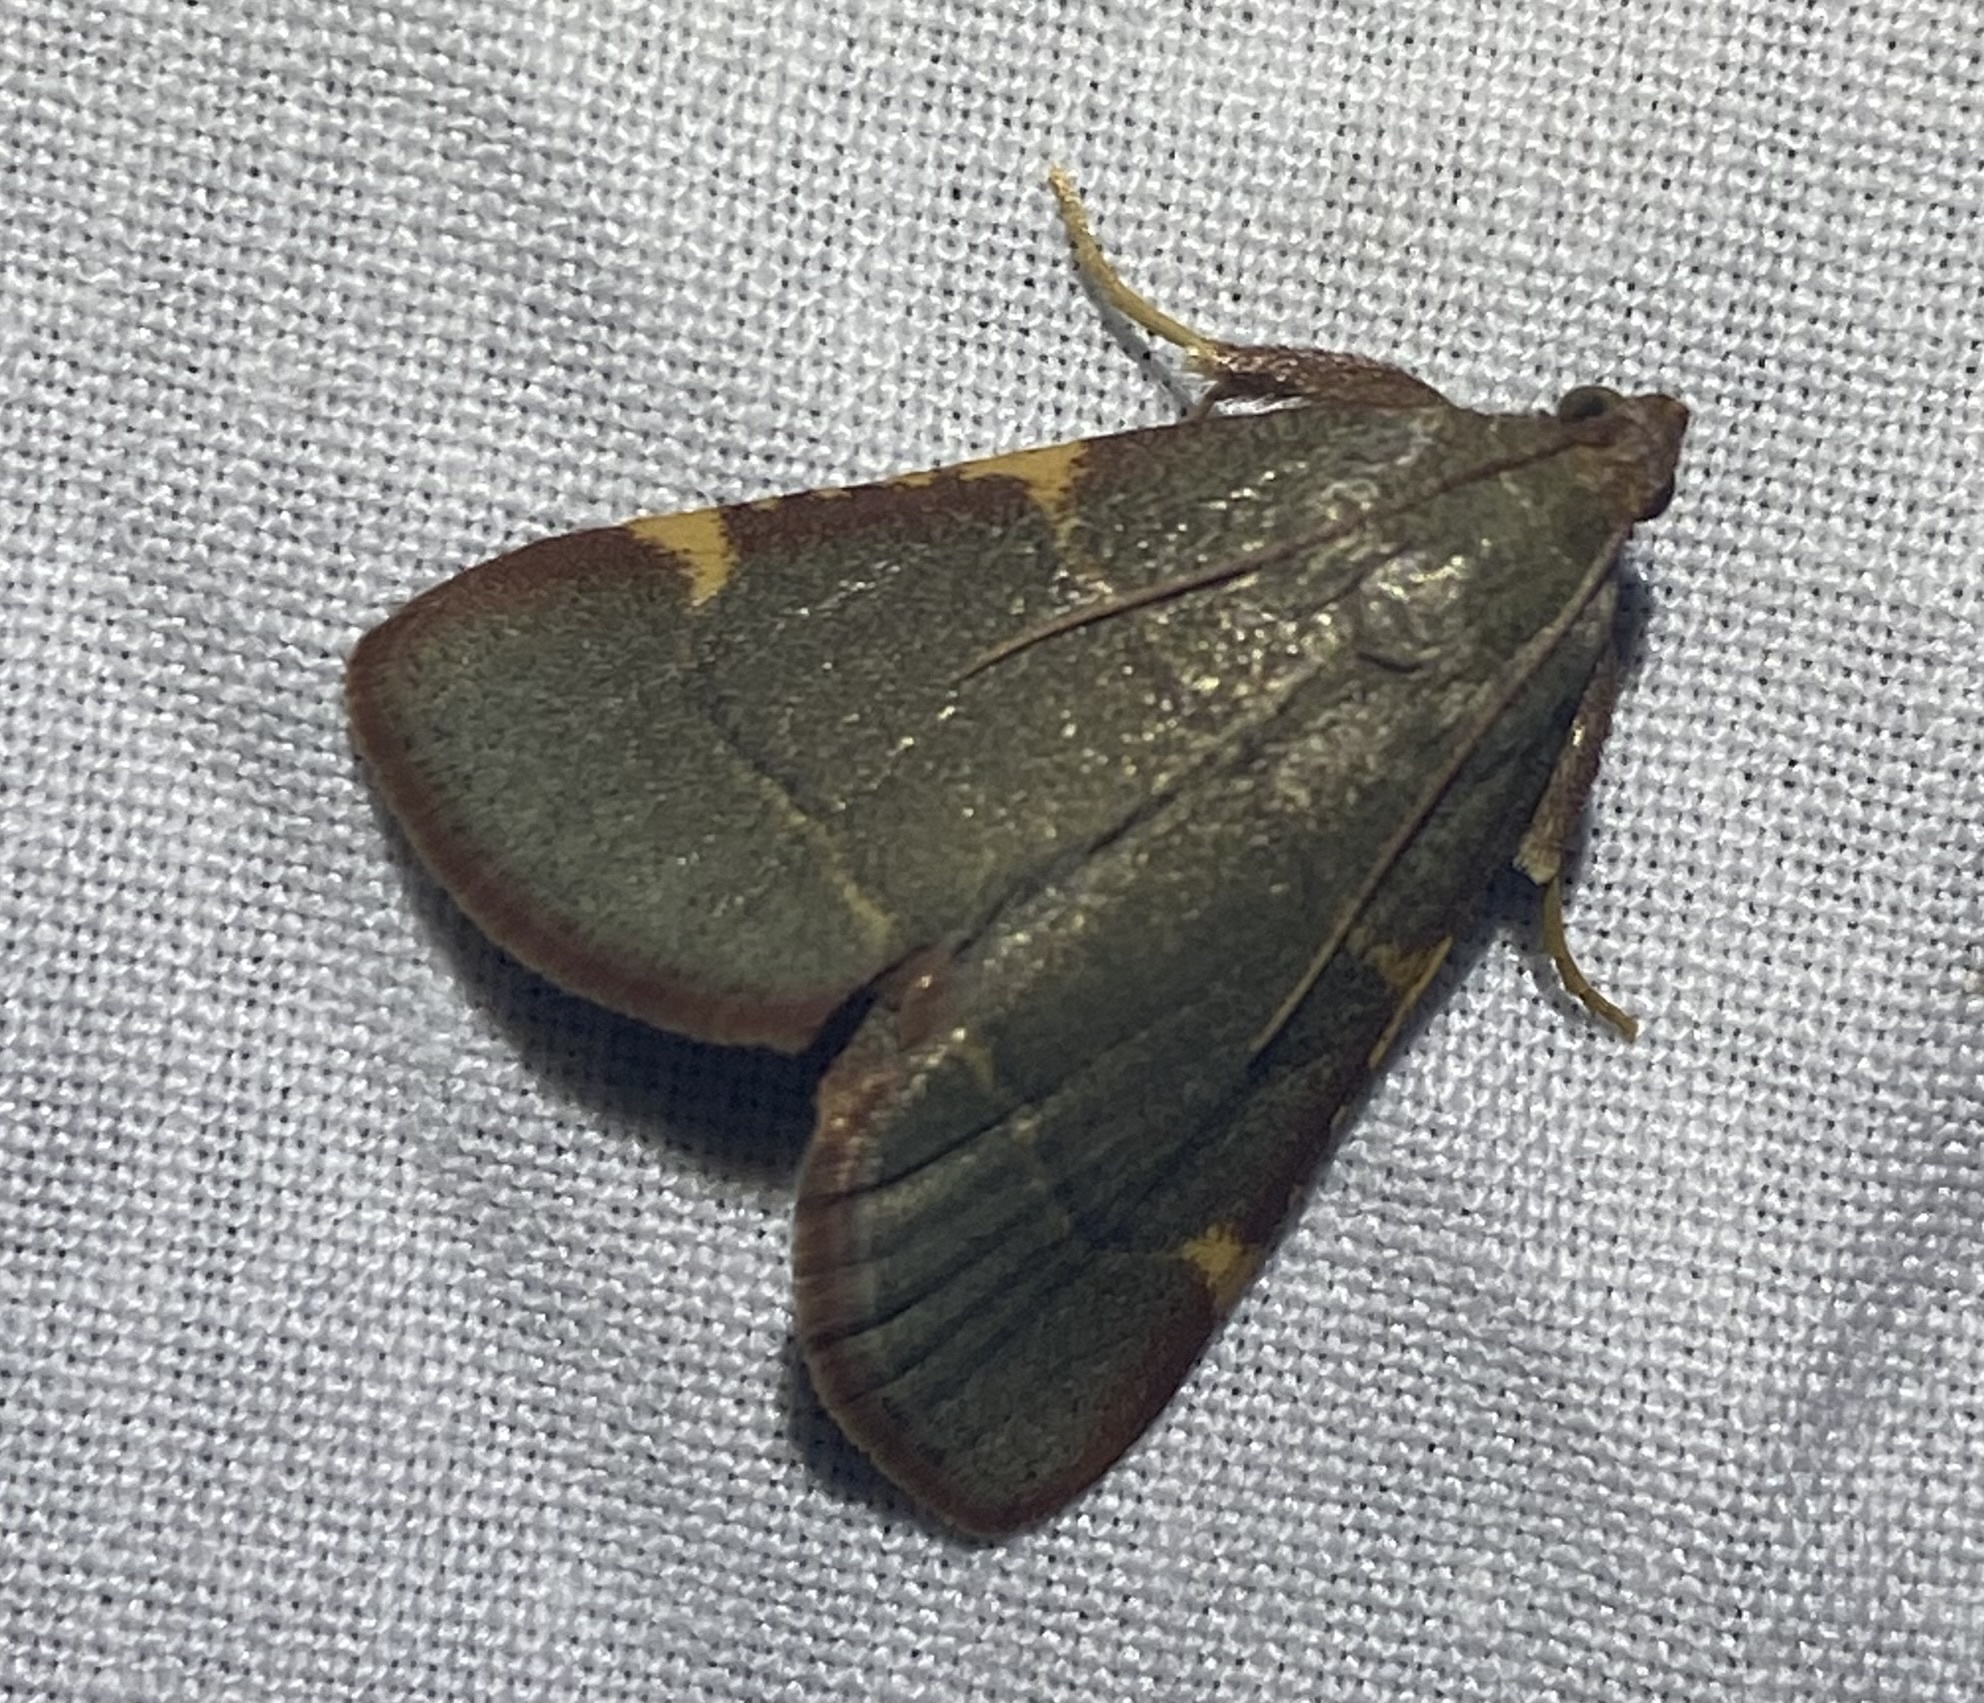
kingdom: Animalia
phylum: Arthropoda
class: Insecta
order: Lepidoptera
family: Pyralidae
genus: Hypsopygia
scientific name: Hypsopygia binodulalis
